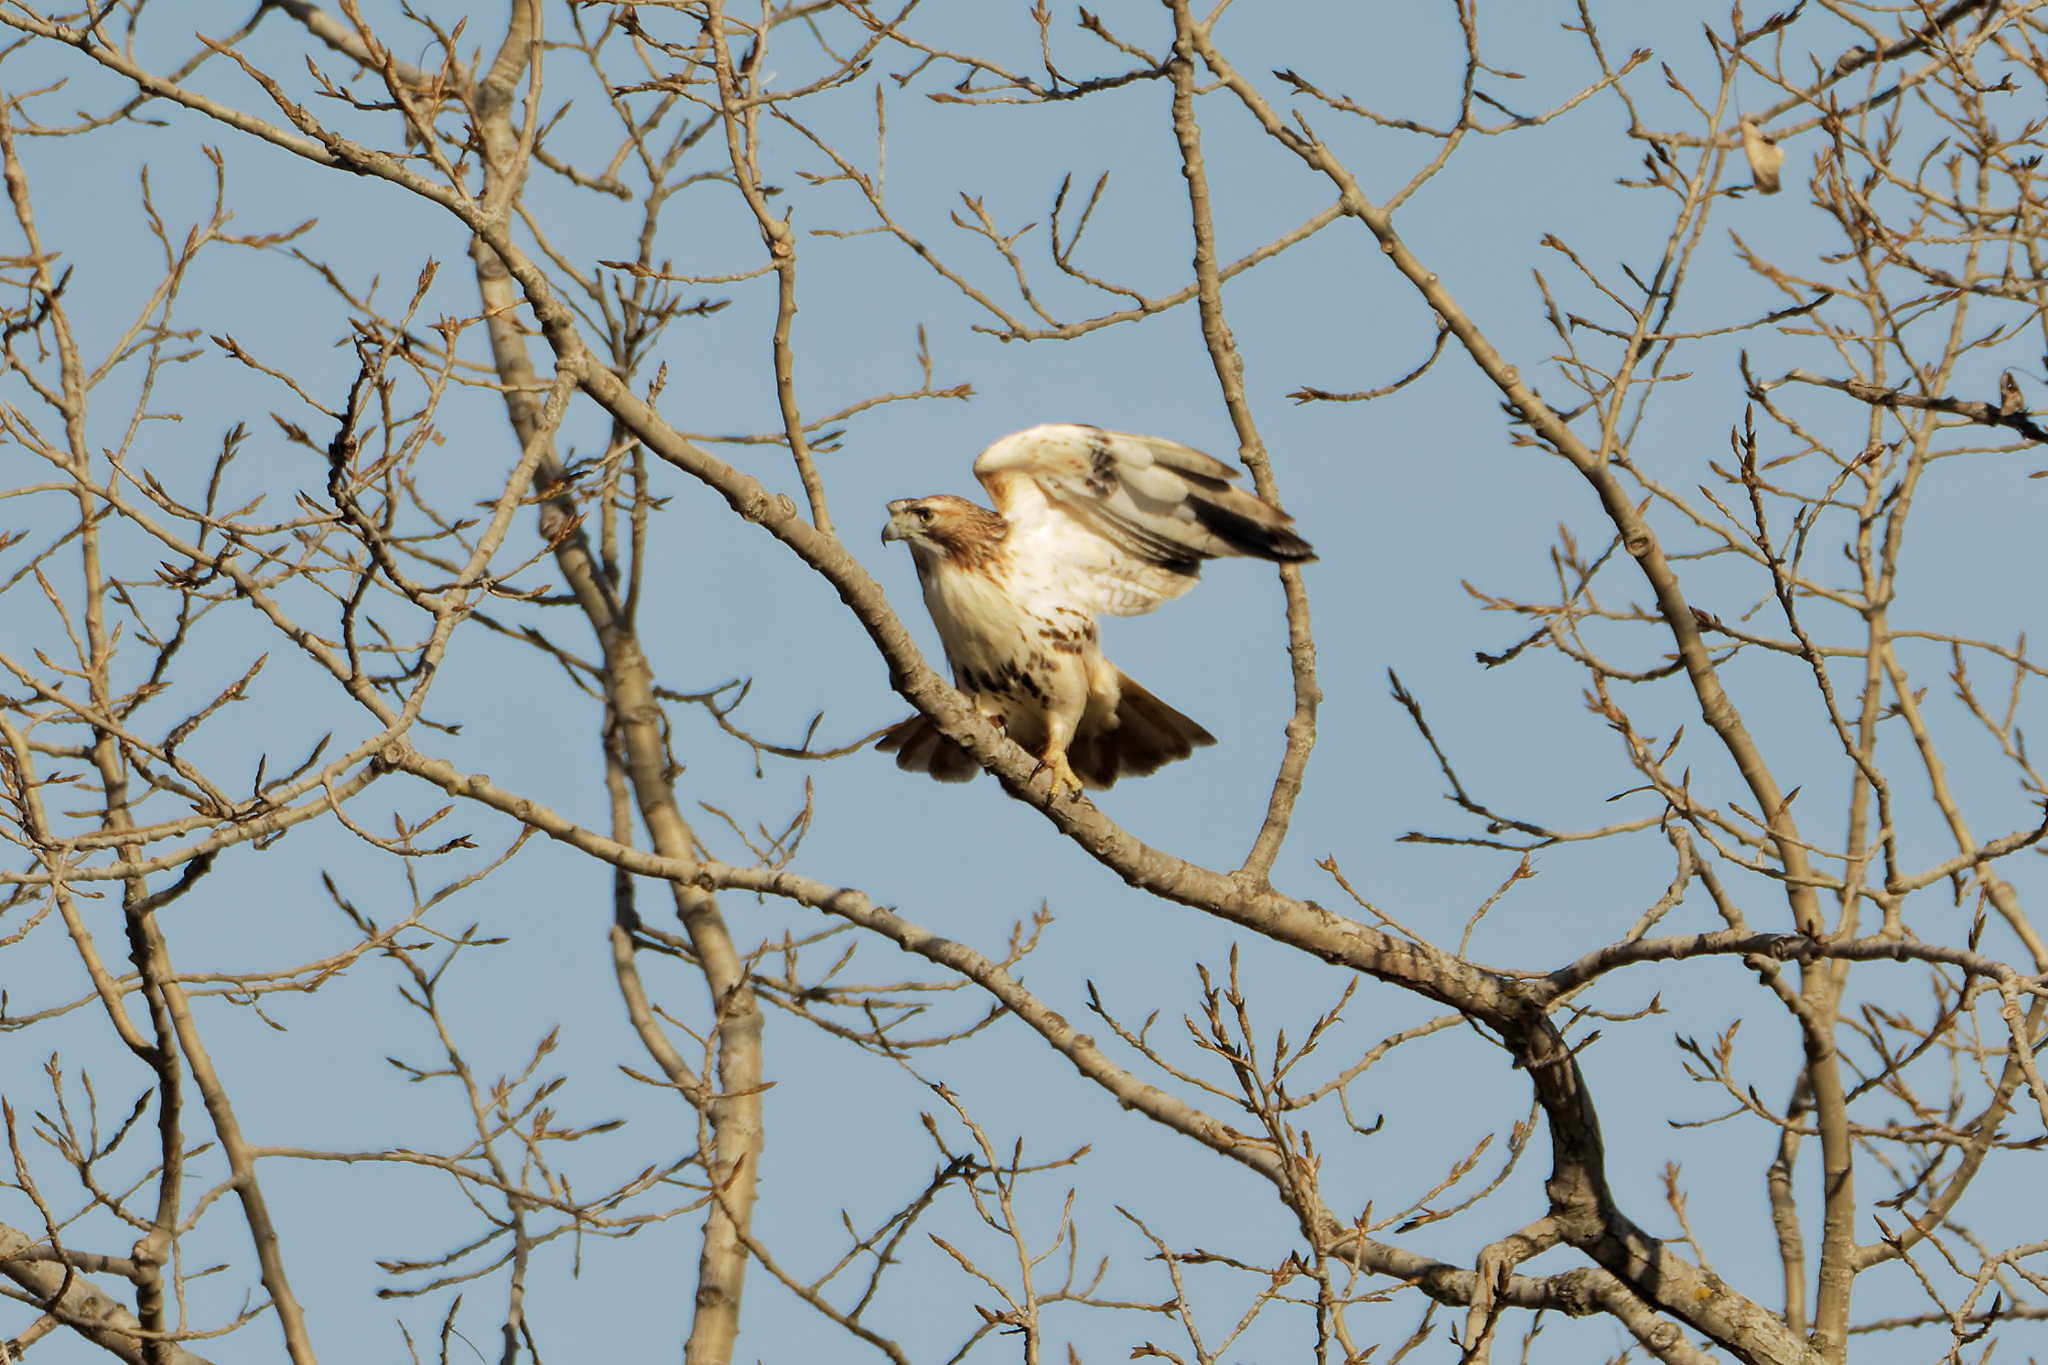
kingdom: Animalia
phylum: Chordata
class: Aves
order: Accipitriformes
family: Accipitridae
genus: Buteo
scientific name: Buteo jamaicensis
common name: Red-tailed hawk
